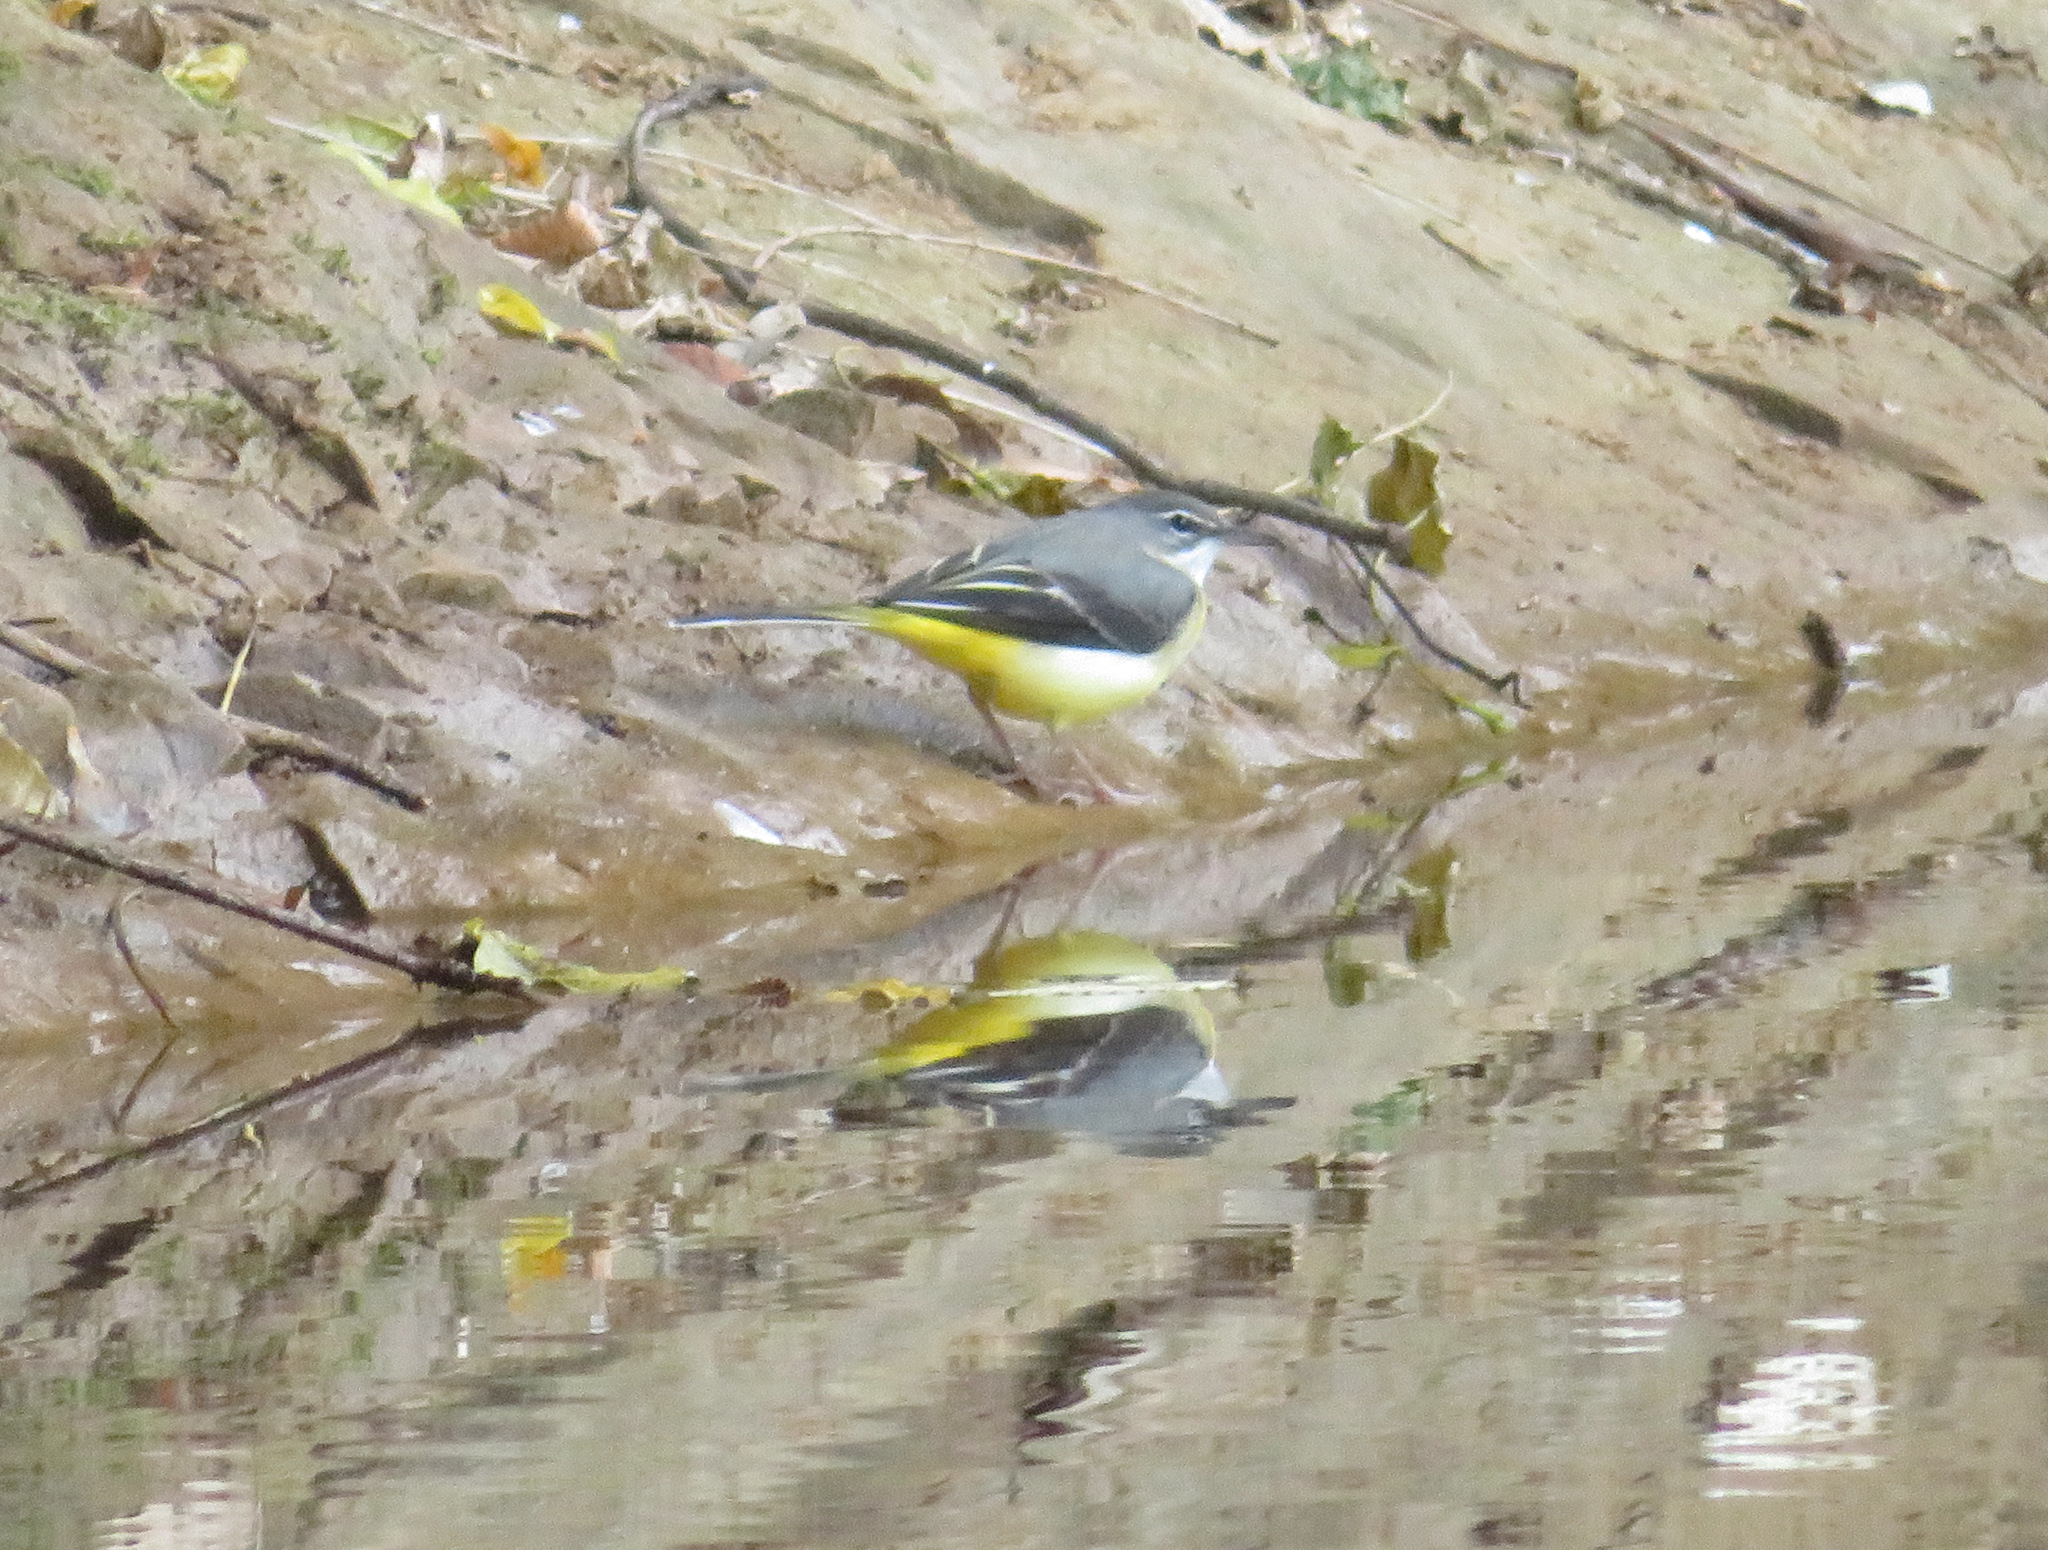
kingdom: Animalia
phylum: Chordata
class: Aves
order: Passeriformes
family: Motacillidae
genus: Motacilla
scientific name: Motacilla cinerea
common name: Grey wagtail
